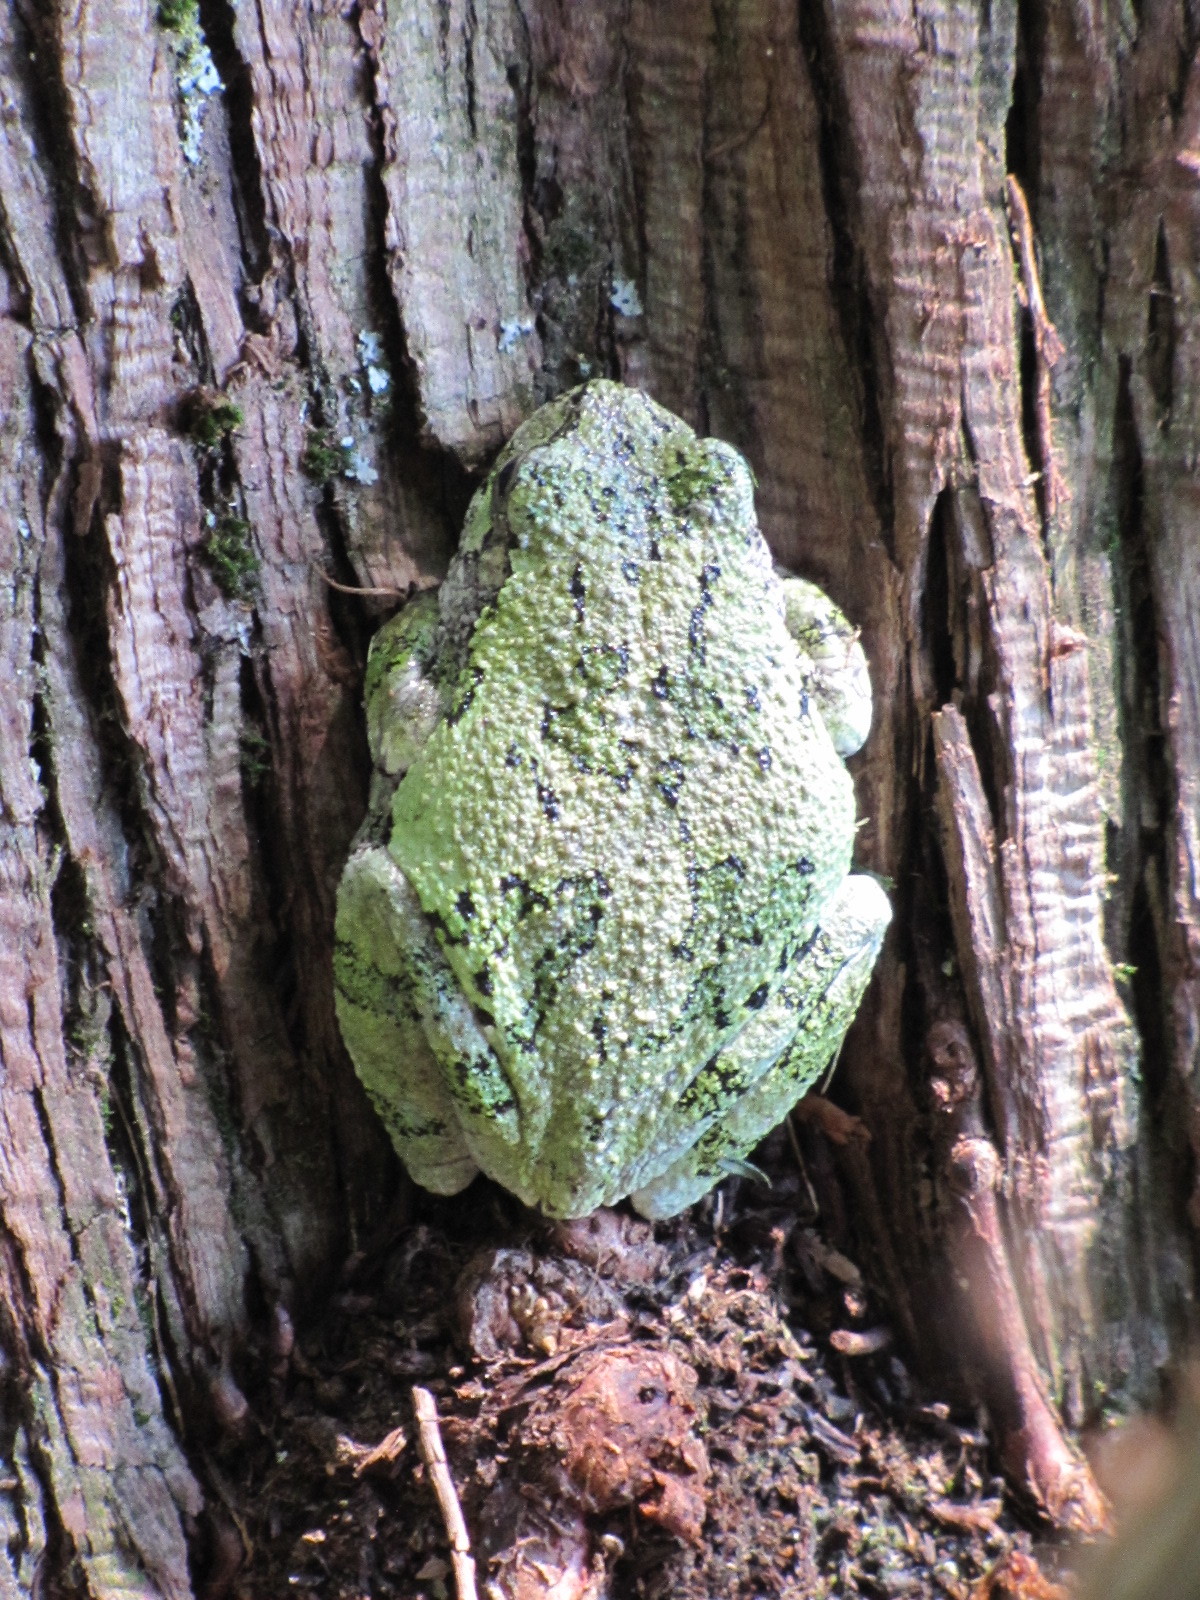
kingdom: Animalia
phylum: Chordata
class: Amphibia
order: Anura
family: Hylidae
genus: Dryophytes
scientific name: Dryophytes versicolor
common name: Gray treefrog
